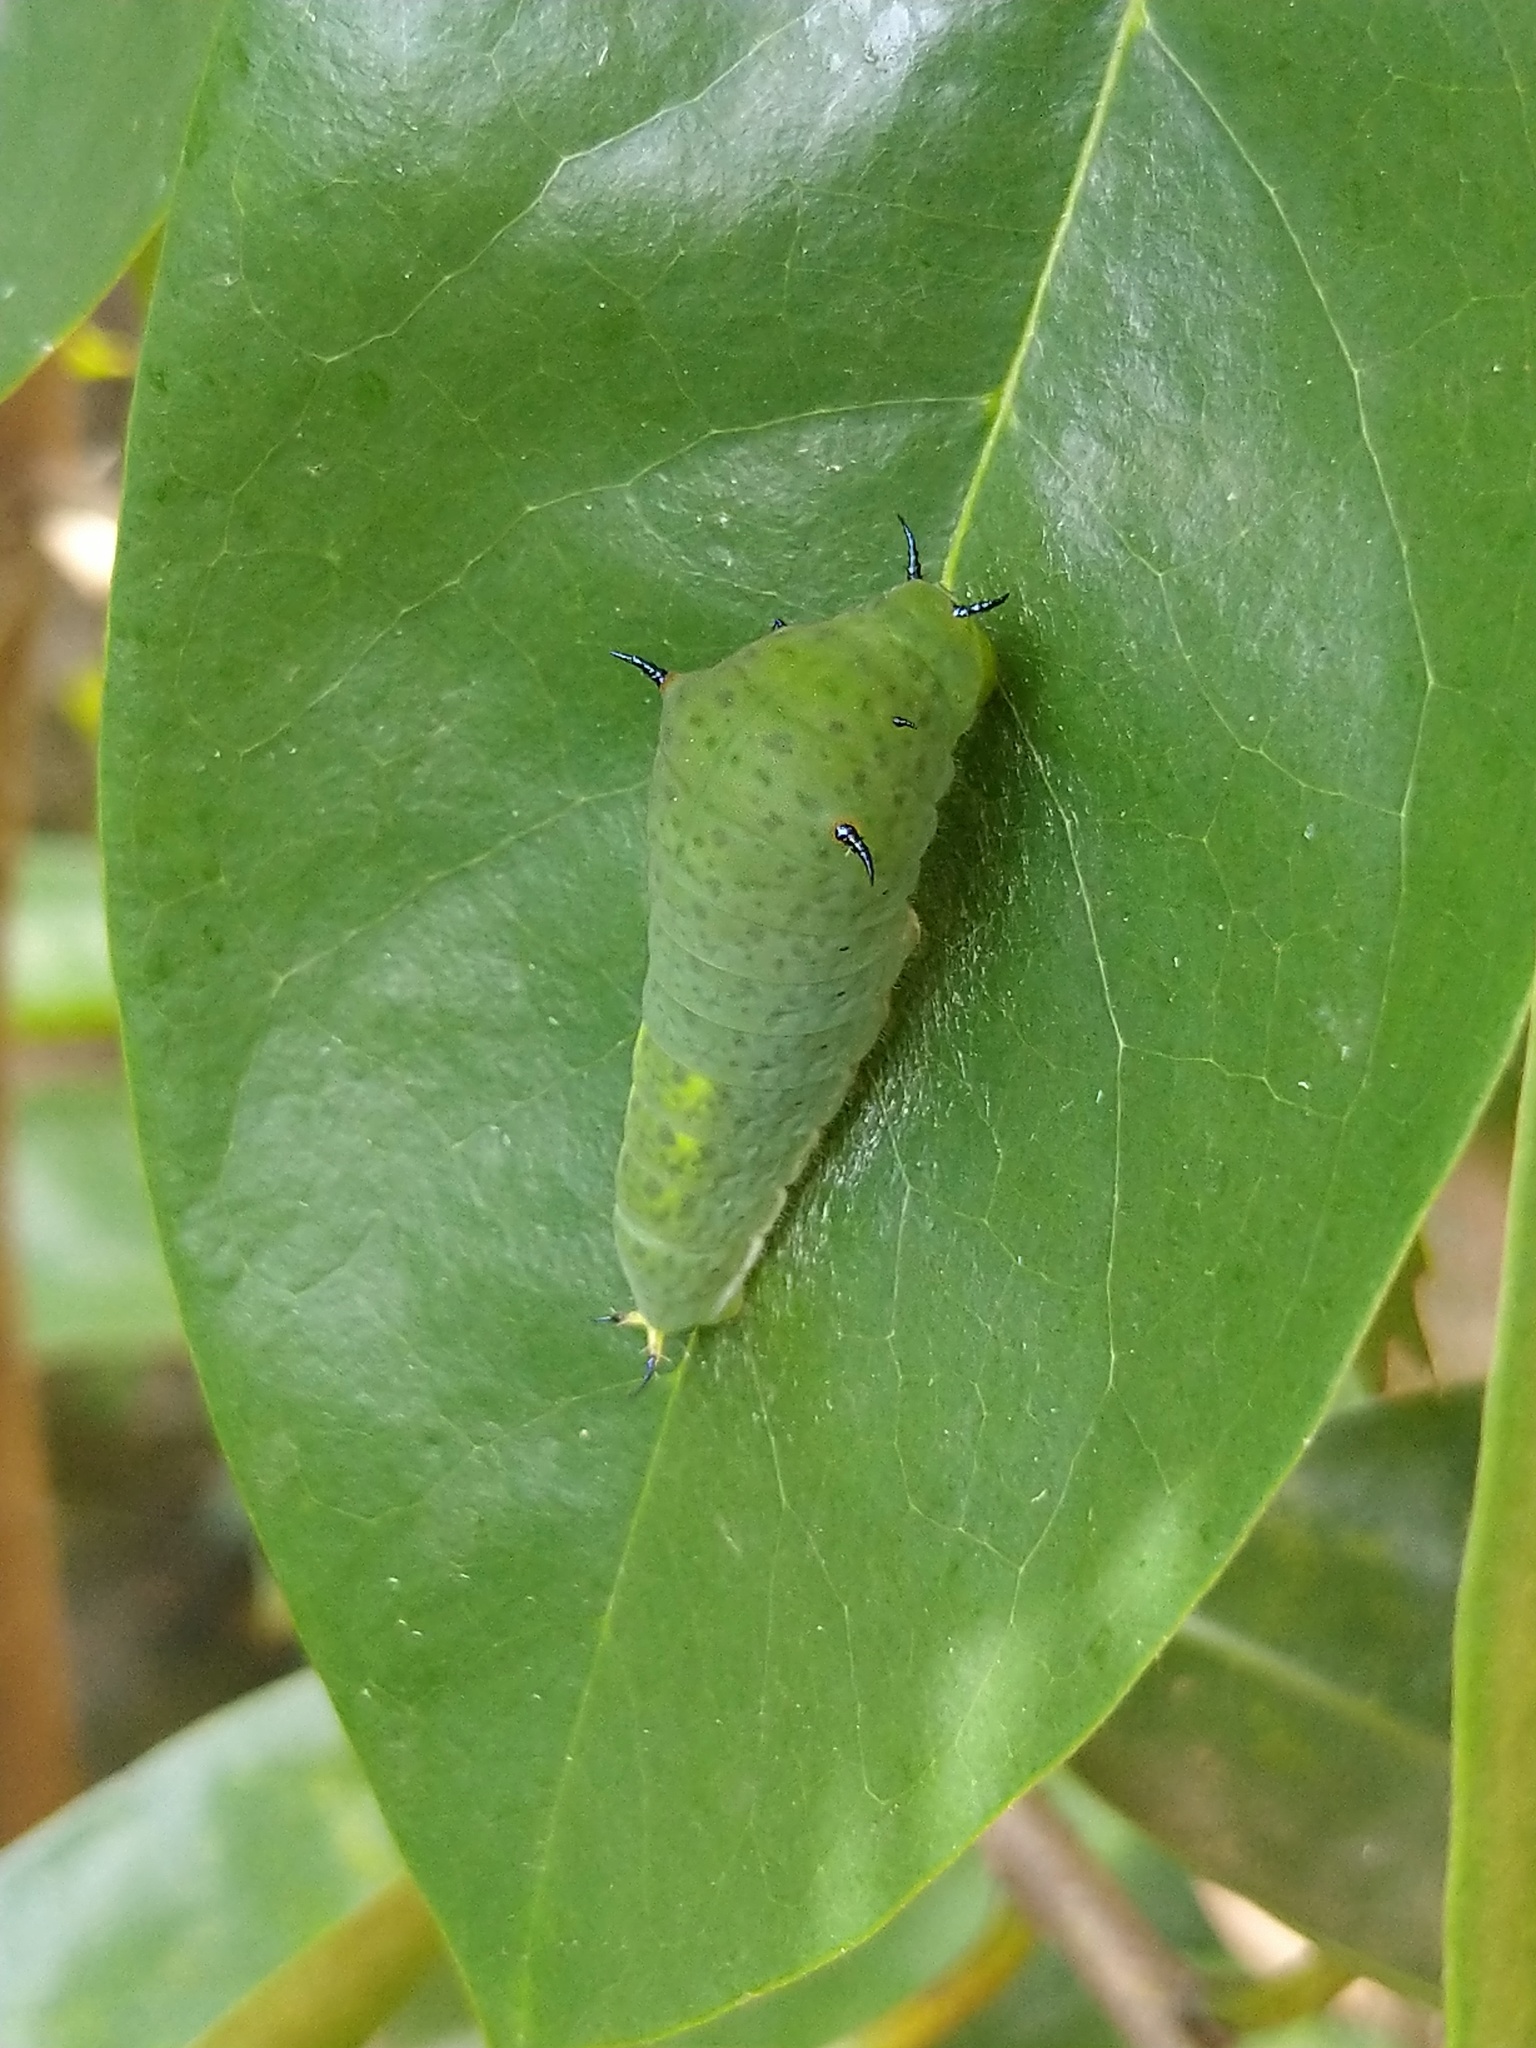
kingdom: Animalia
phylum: Arthropoda
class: Insecta
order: Lepidoptera
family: Papilionidae
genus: Graphium
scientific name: Graphium agamemnon
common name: Tailed jay
